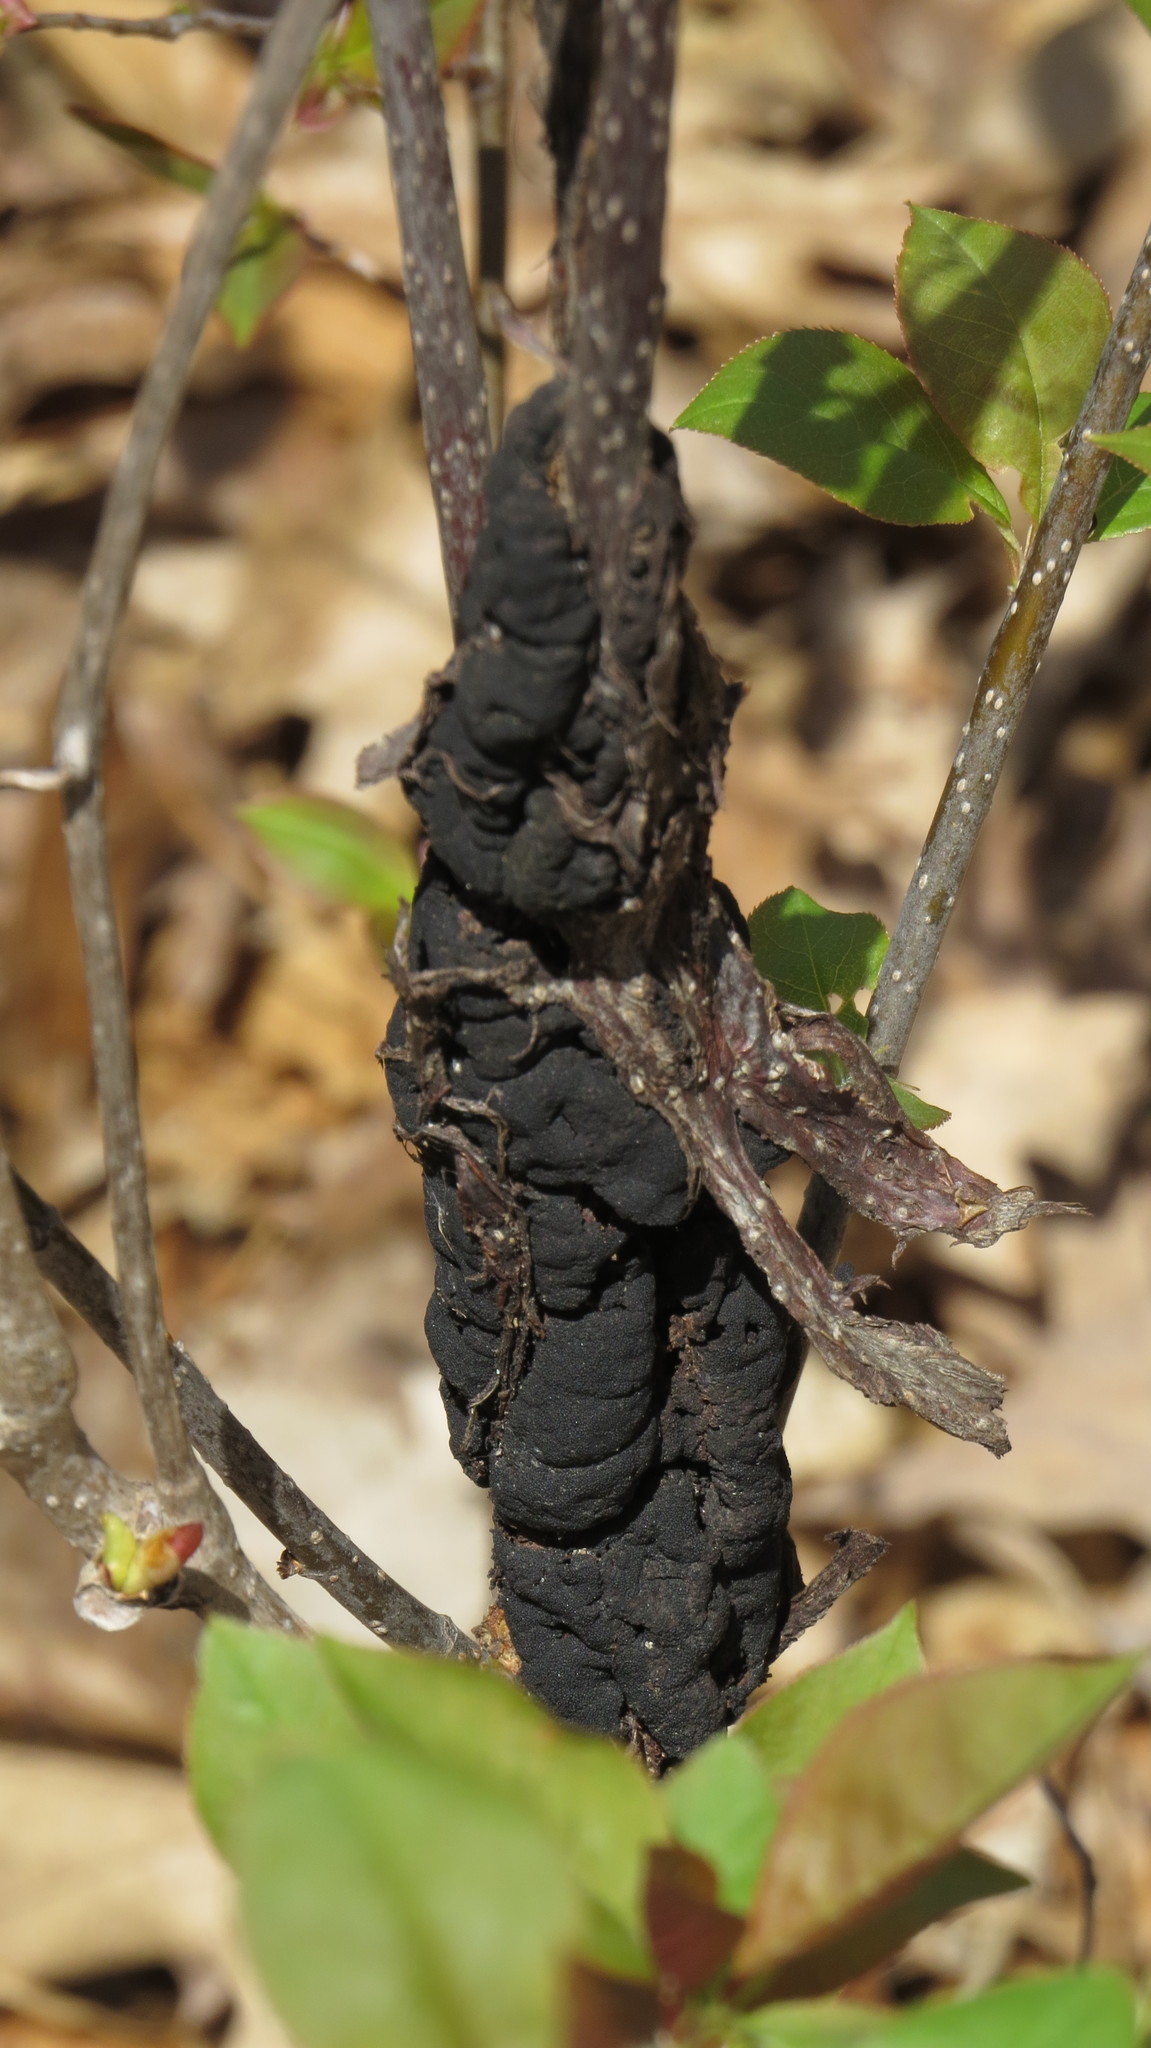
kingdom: Fungi
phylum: Ascomycota
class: Dothideomycetes
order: Venturiales
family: Venturiaceae
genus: Apiosporina
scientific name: Apiosporina morbosa
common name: Black knot
